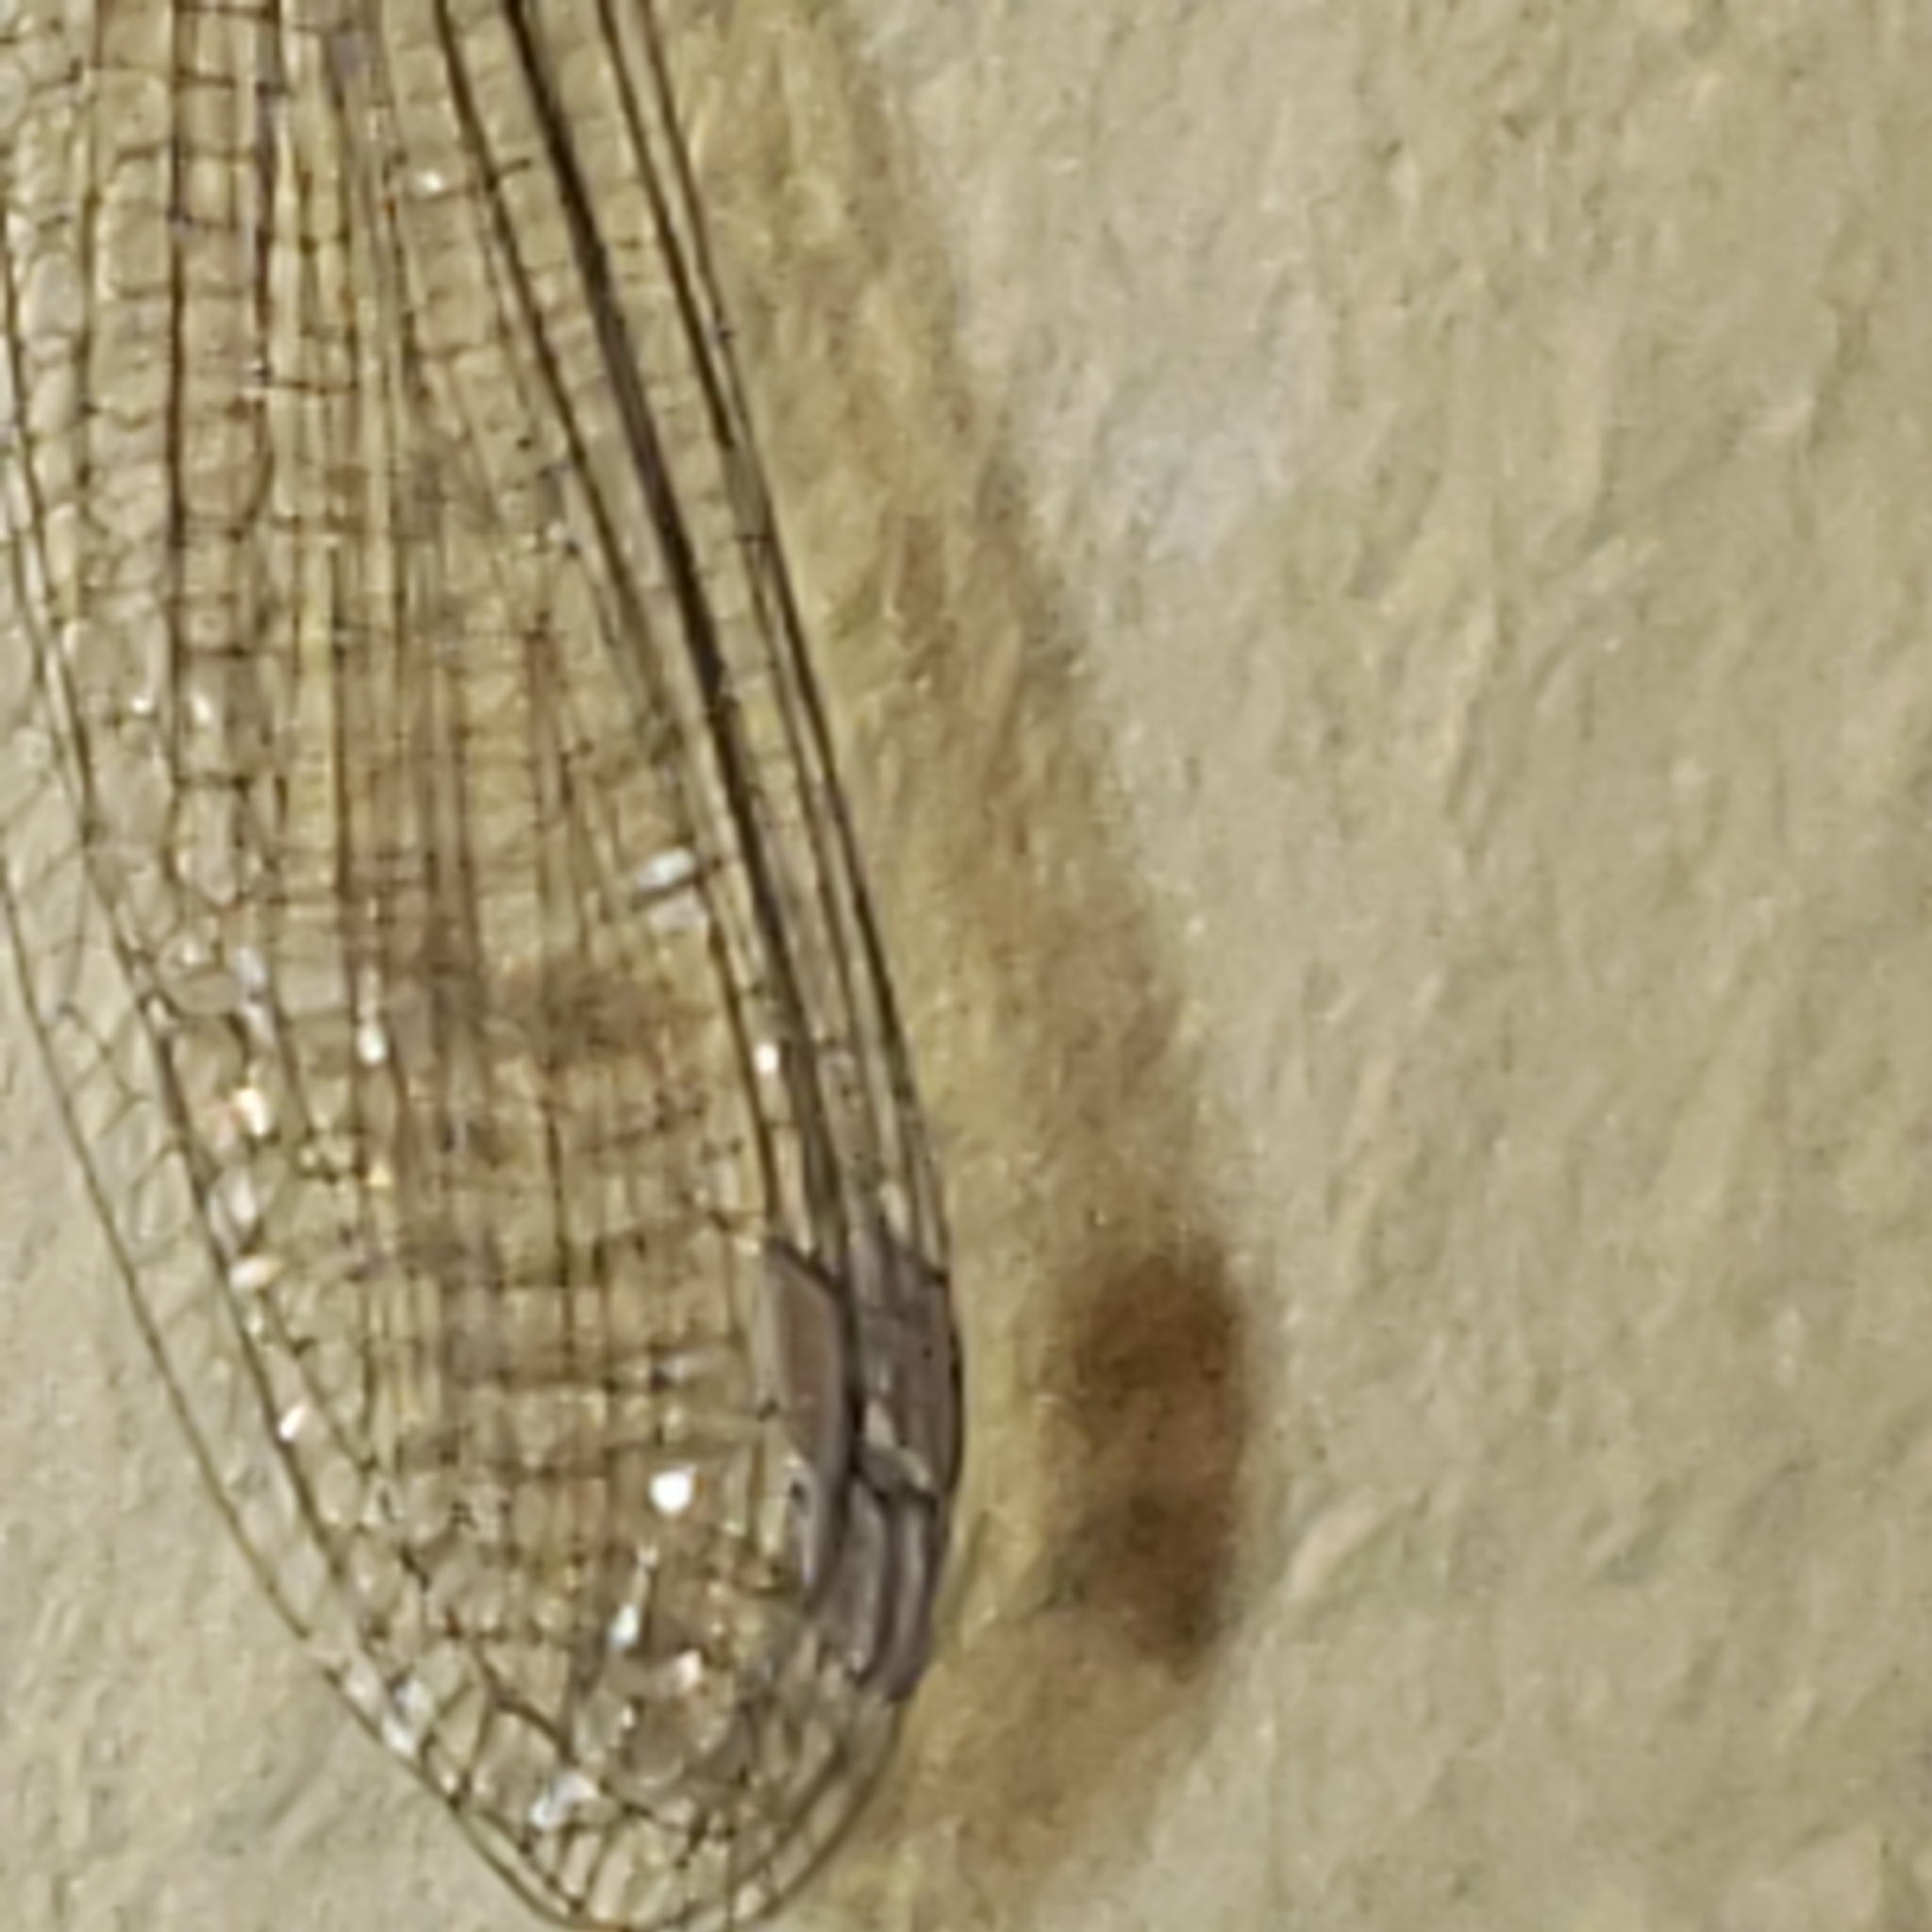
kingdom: Animalia
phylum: Arthropoda
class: Insecta
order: Odonata
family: Coenagrionidae
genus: Argia
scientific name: Argia fumipennis
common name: Variable dancer
